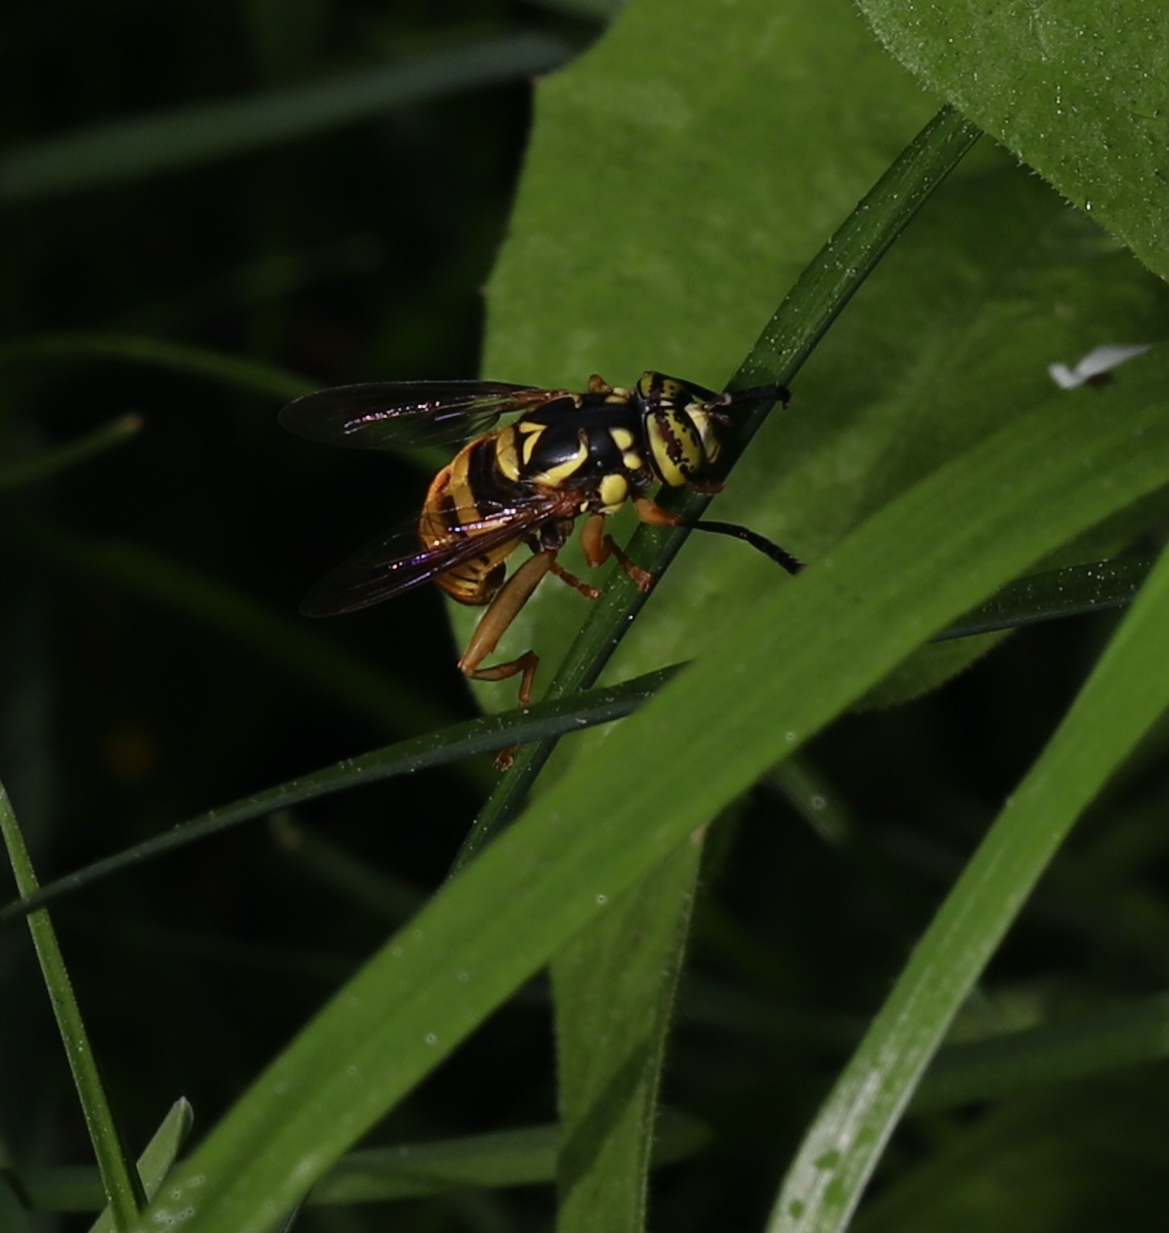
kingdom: Animalia
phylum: Arthropoda
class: Insecta
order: Diptera
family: Syrphidae
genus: Spilomyia
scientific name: Spilomyia alcimus
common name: Broad-banded hornet fly
